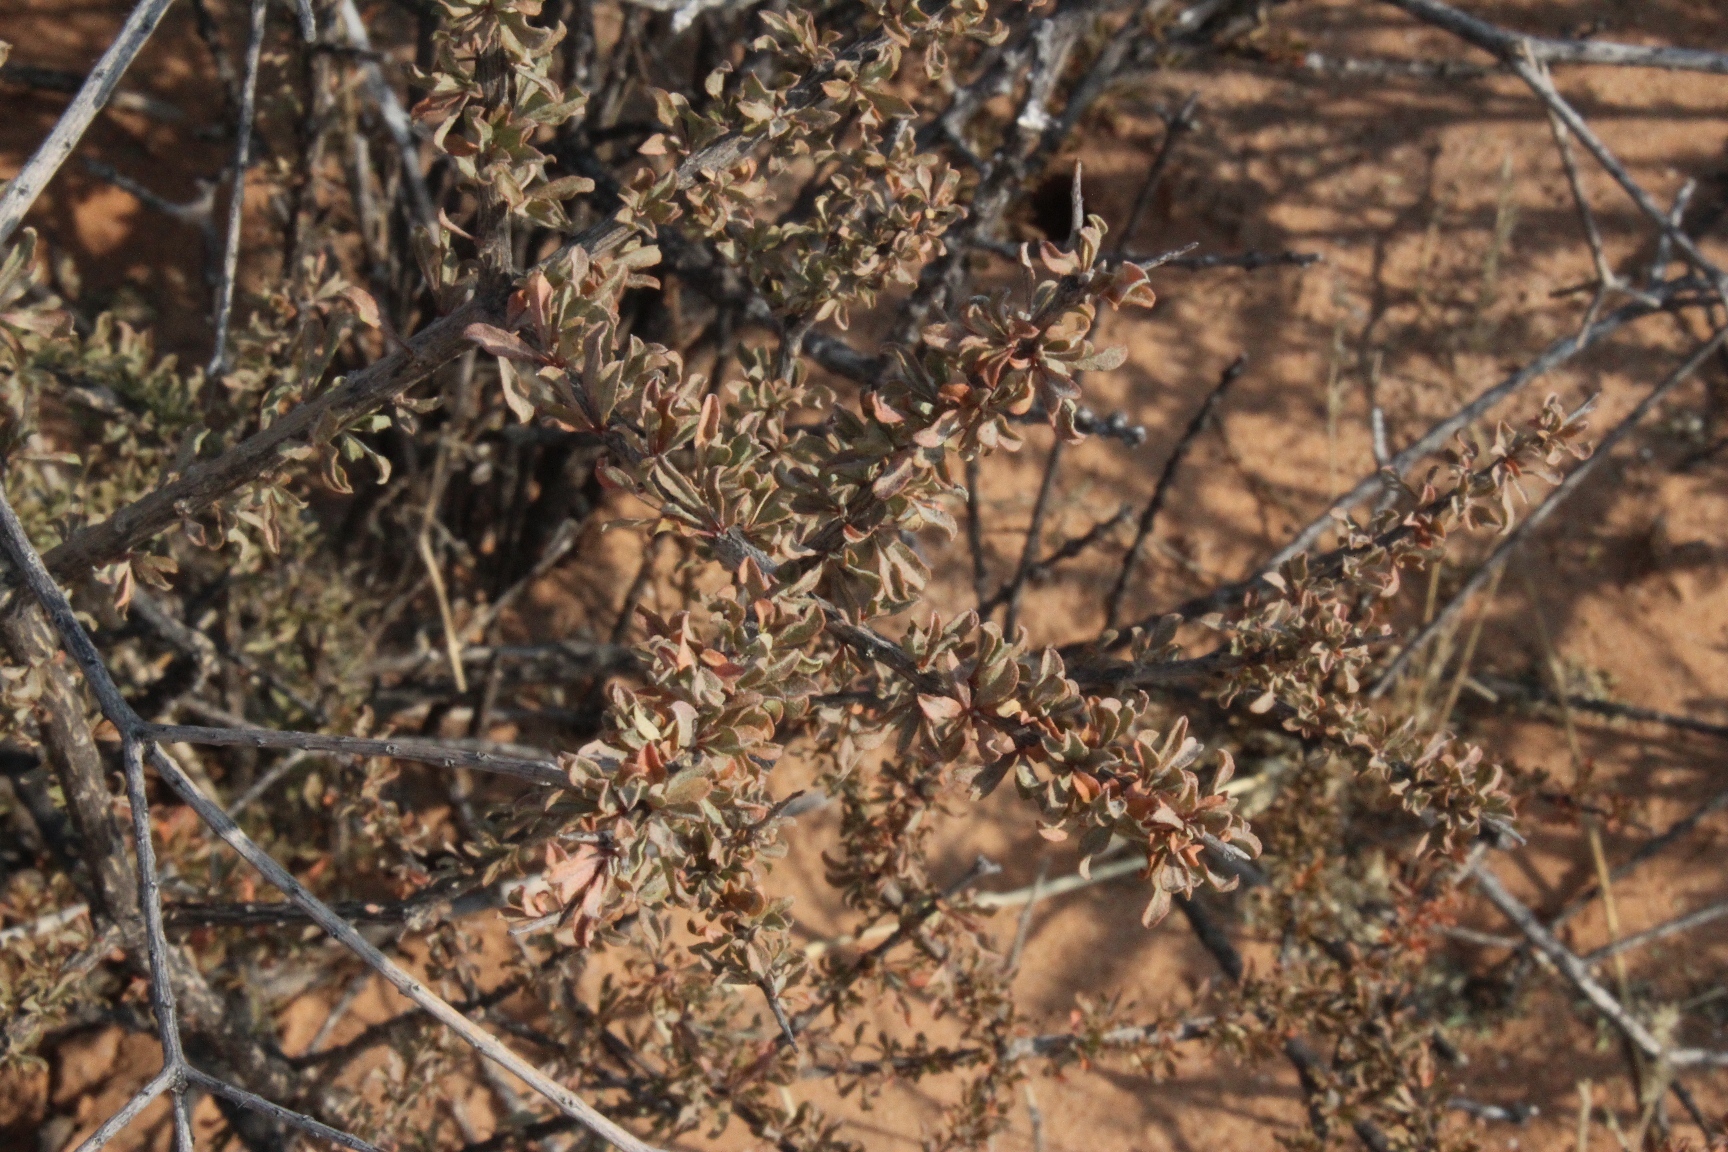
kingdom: Plantae
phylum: Tracheophyta
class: Magnoliopsida
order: Lamiales
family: Bignoniaceae
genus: Rhigozum
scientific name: Rhigozum trichotomum
